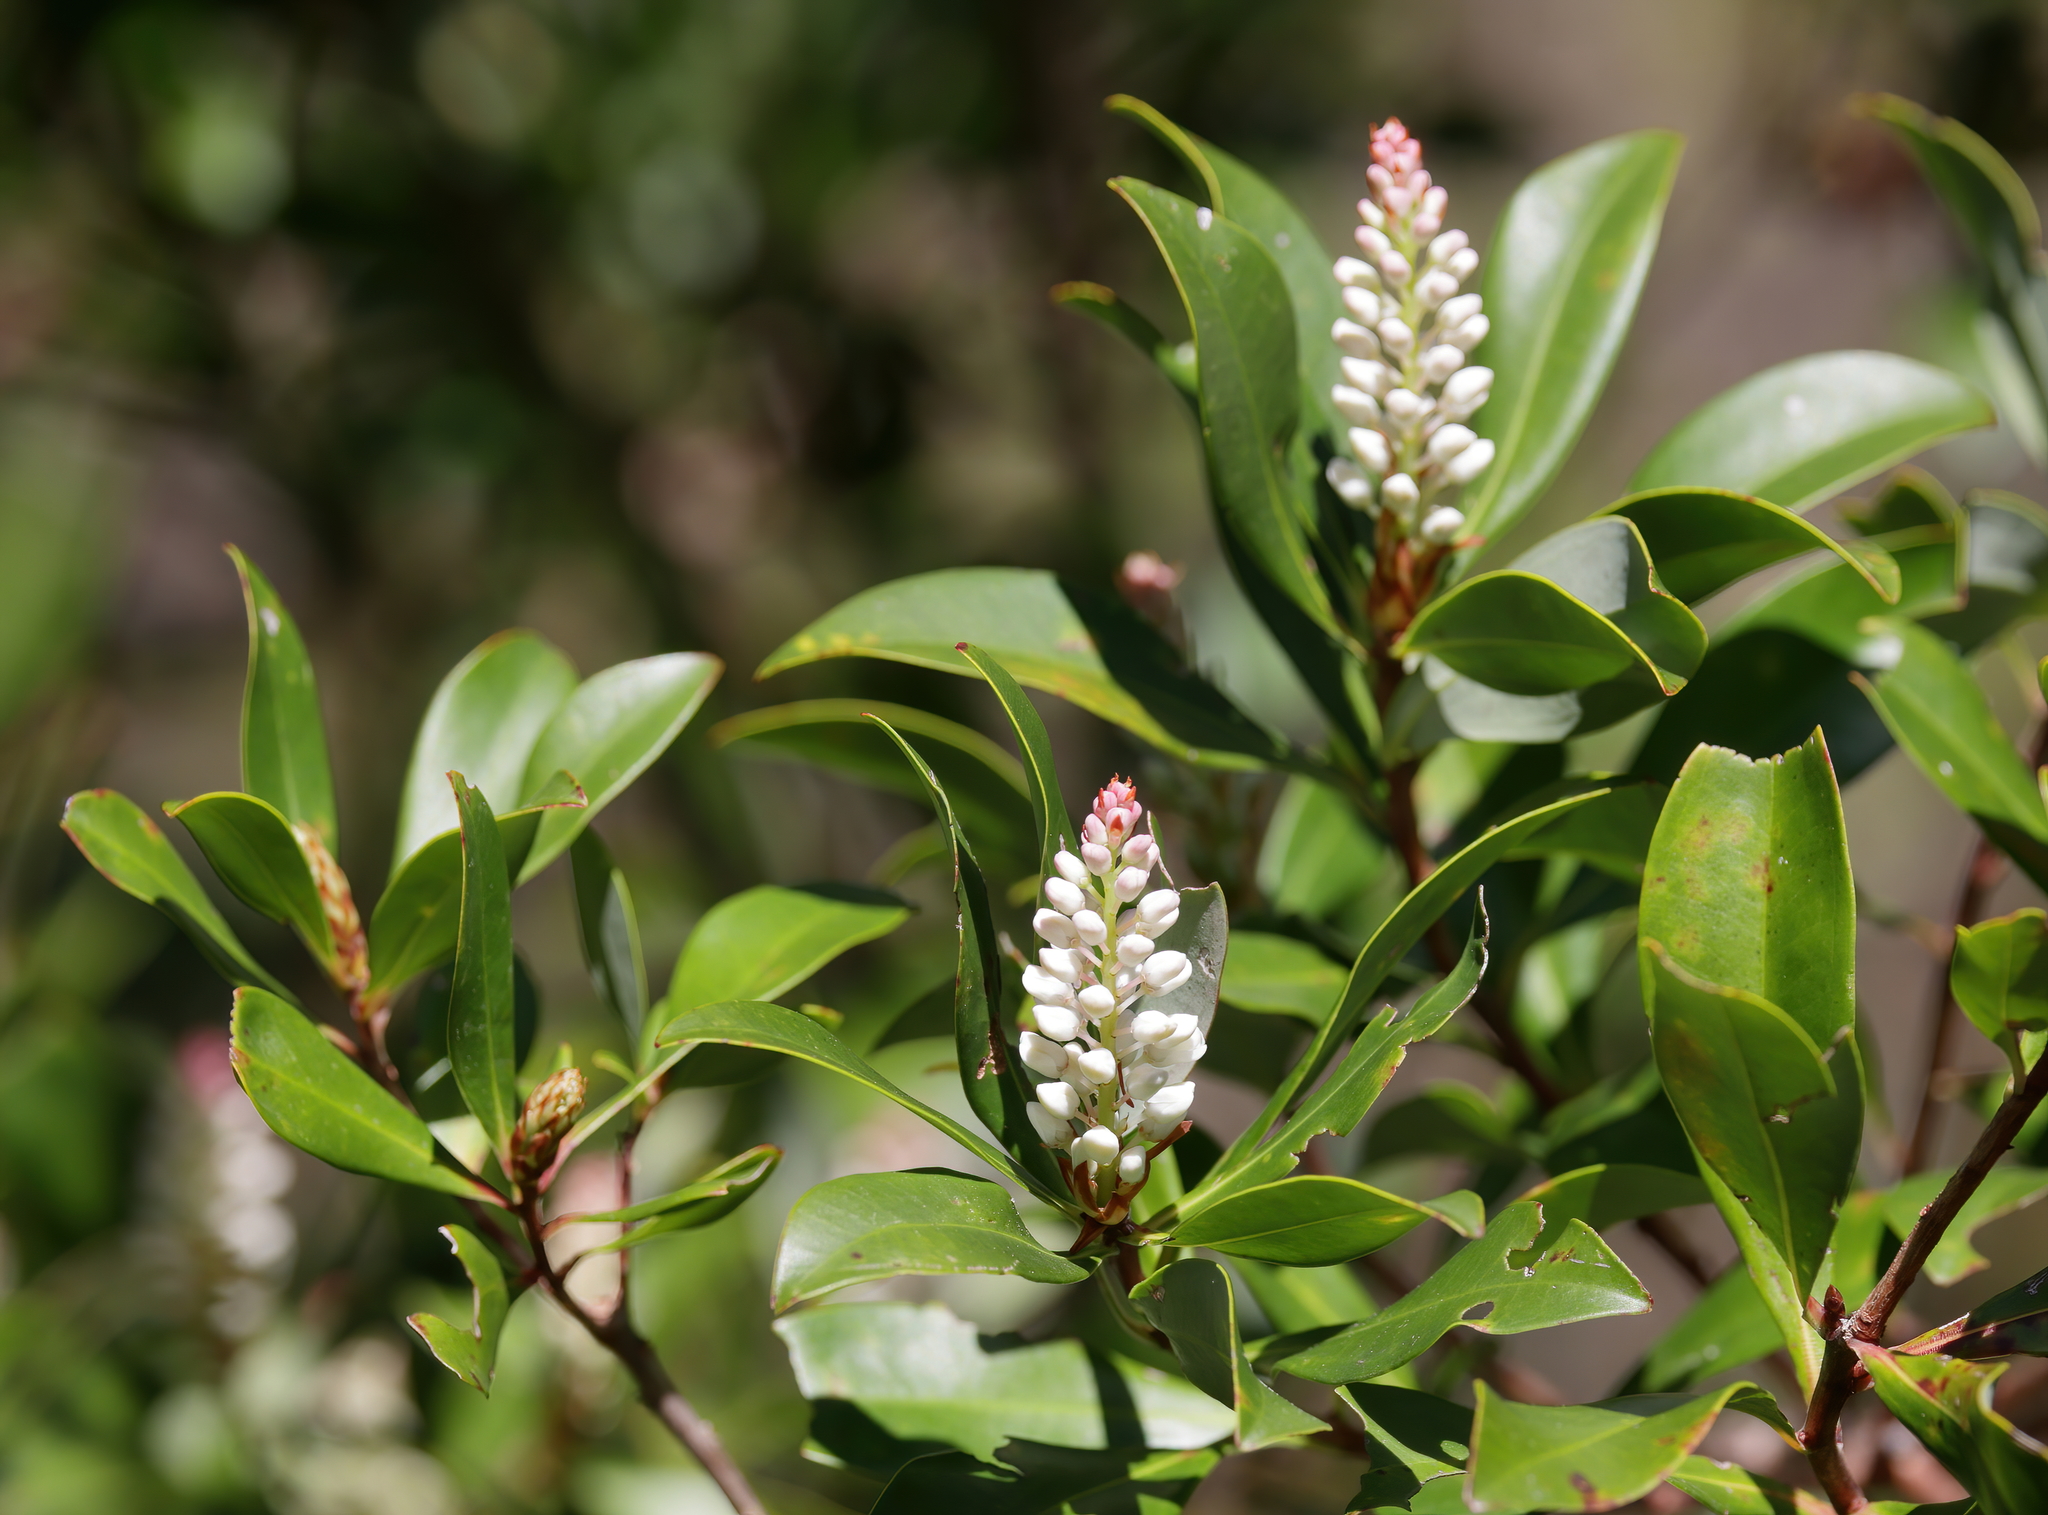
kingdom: Plantae
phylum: Tracheophyta
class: Magnoliopsida
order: Ericales
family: Cyrillaceae
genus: Cliftonia
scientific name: Cliftonia monophylla
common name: Titi
